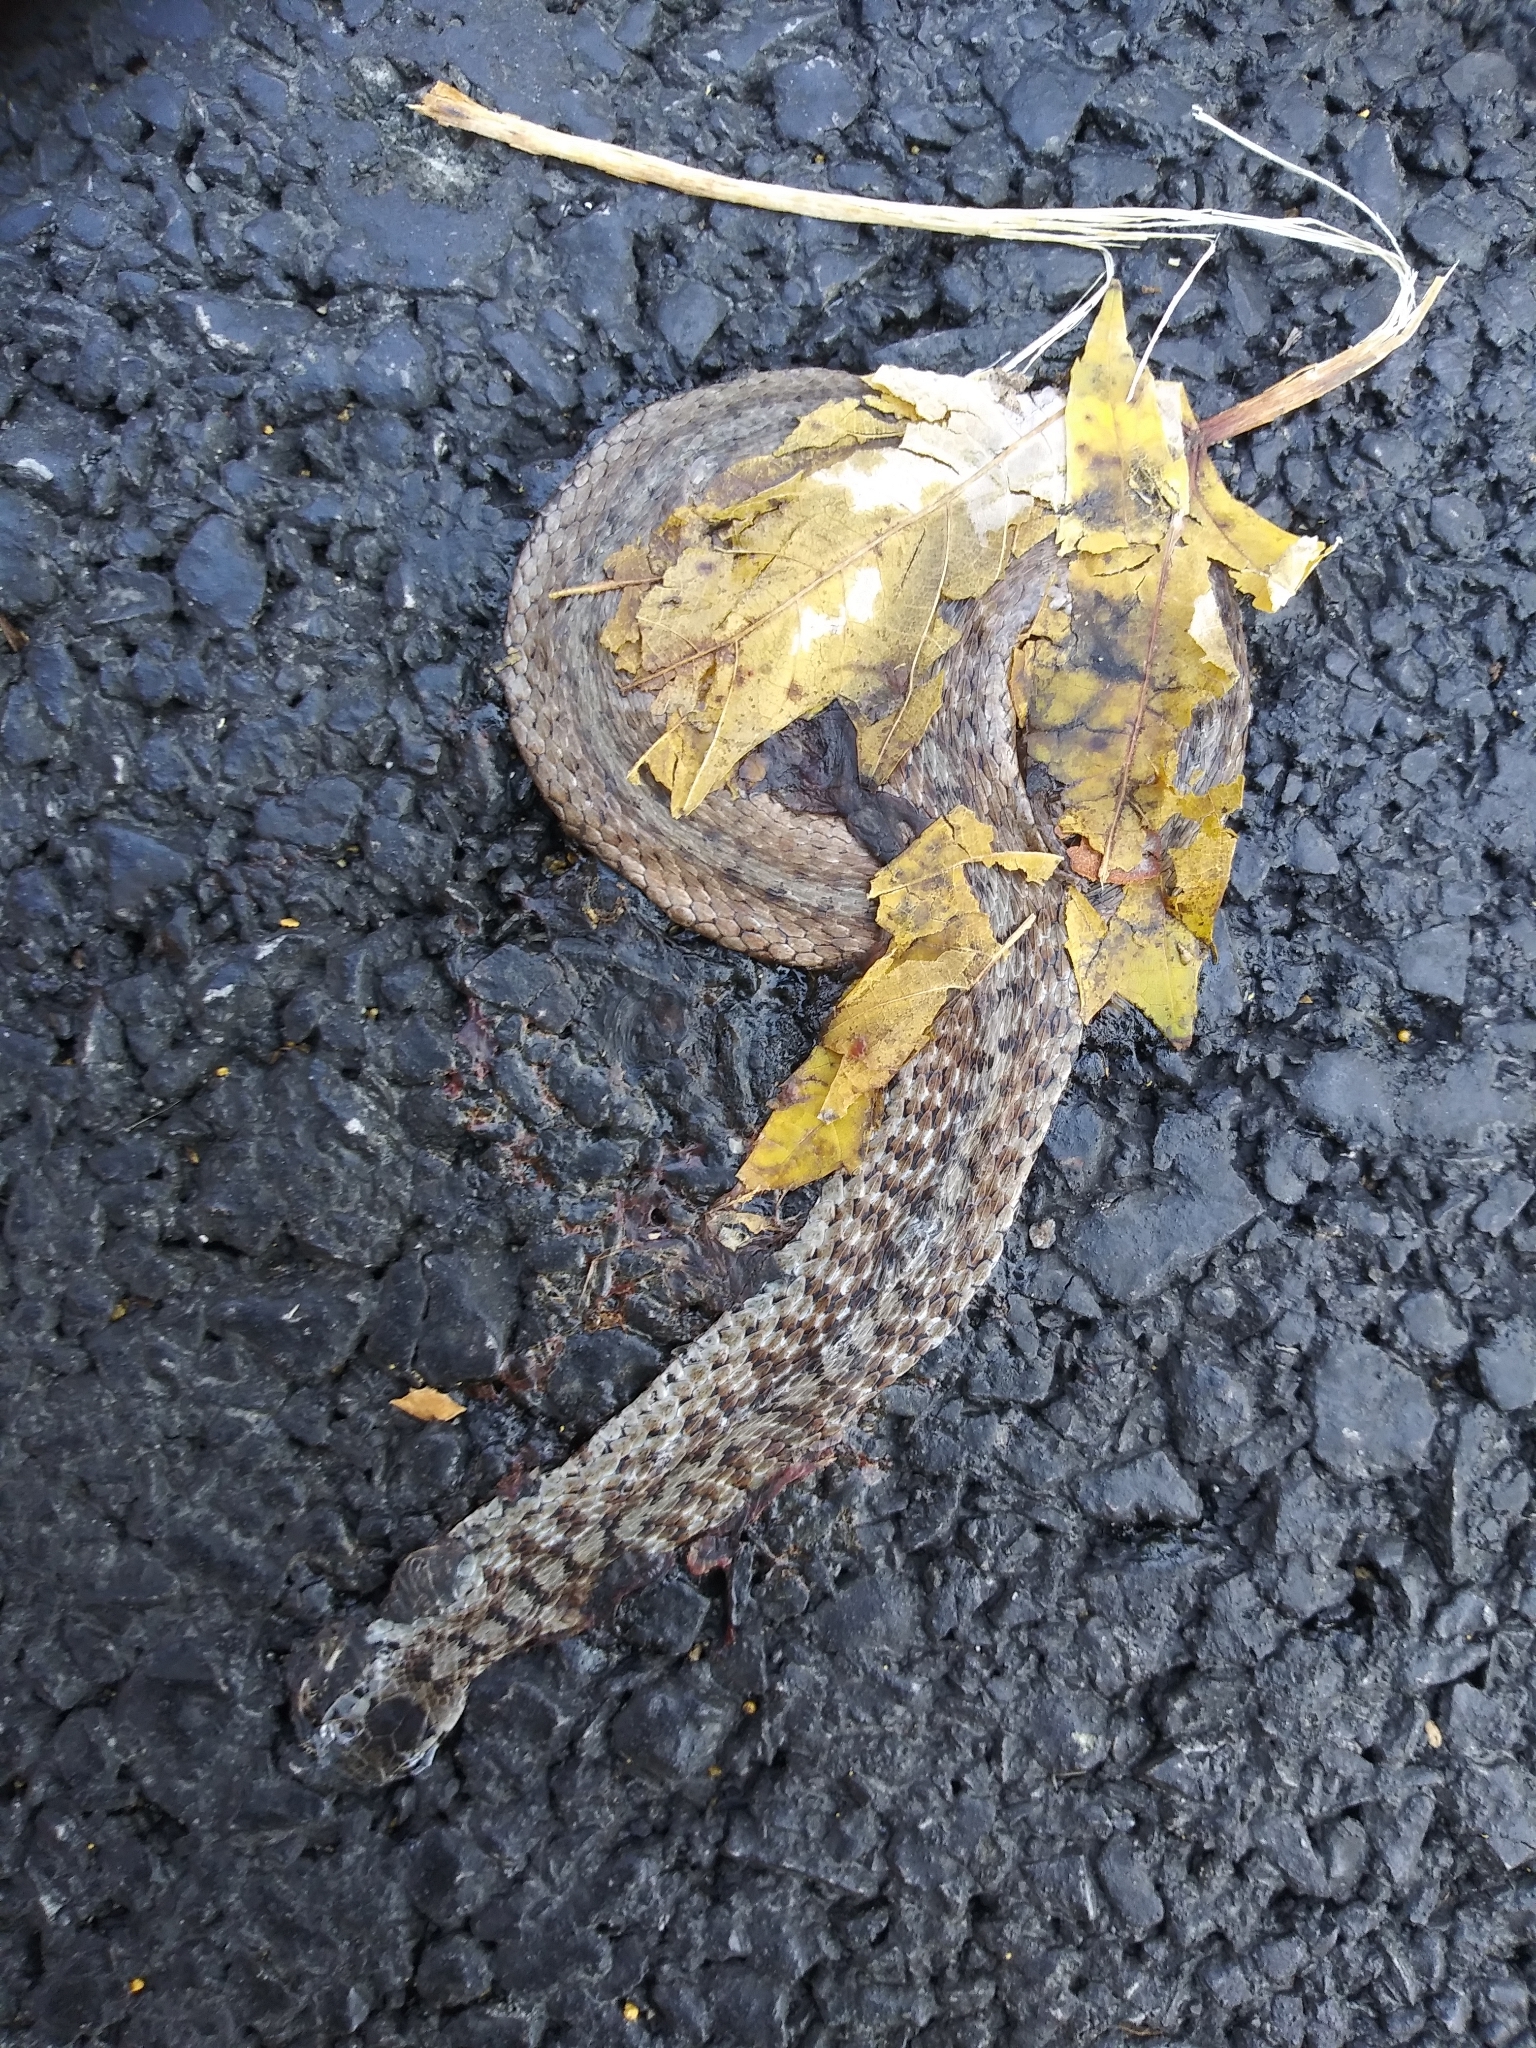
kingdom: Animalia
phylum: Chordata
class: Squamata
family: Colubridae
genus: Storeria
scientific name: Storeria dekayi
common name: (dekay’s) brown snake
